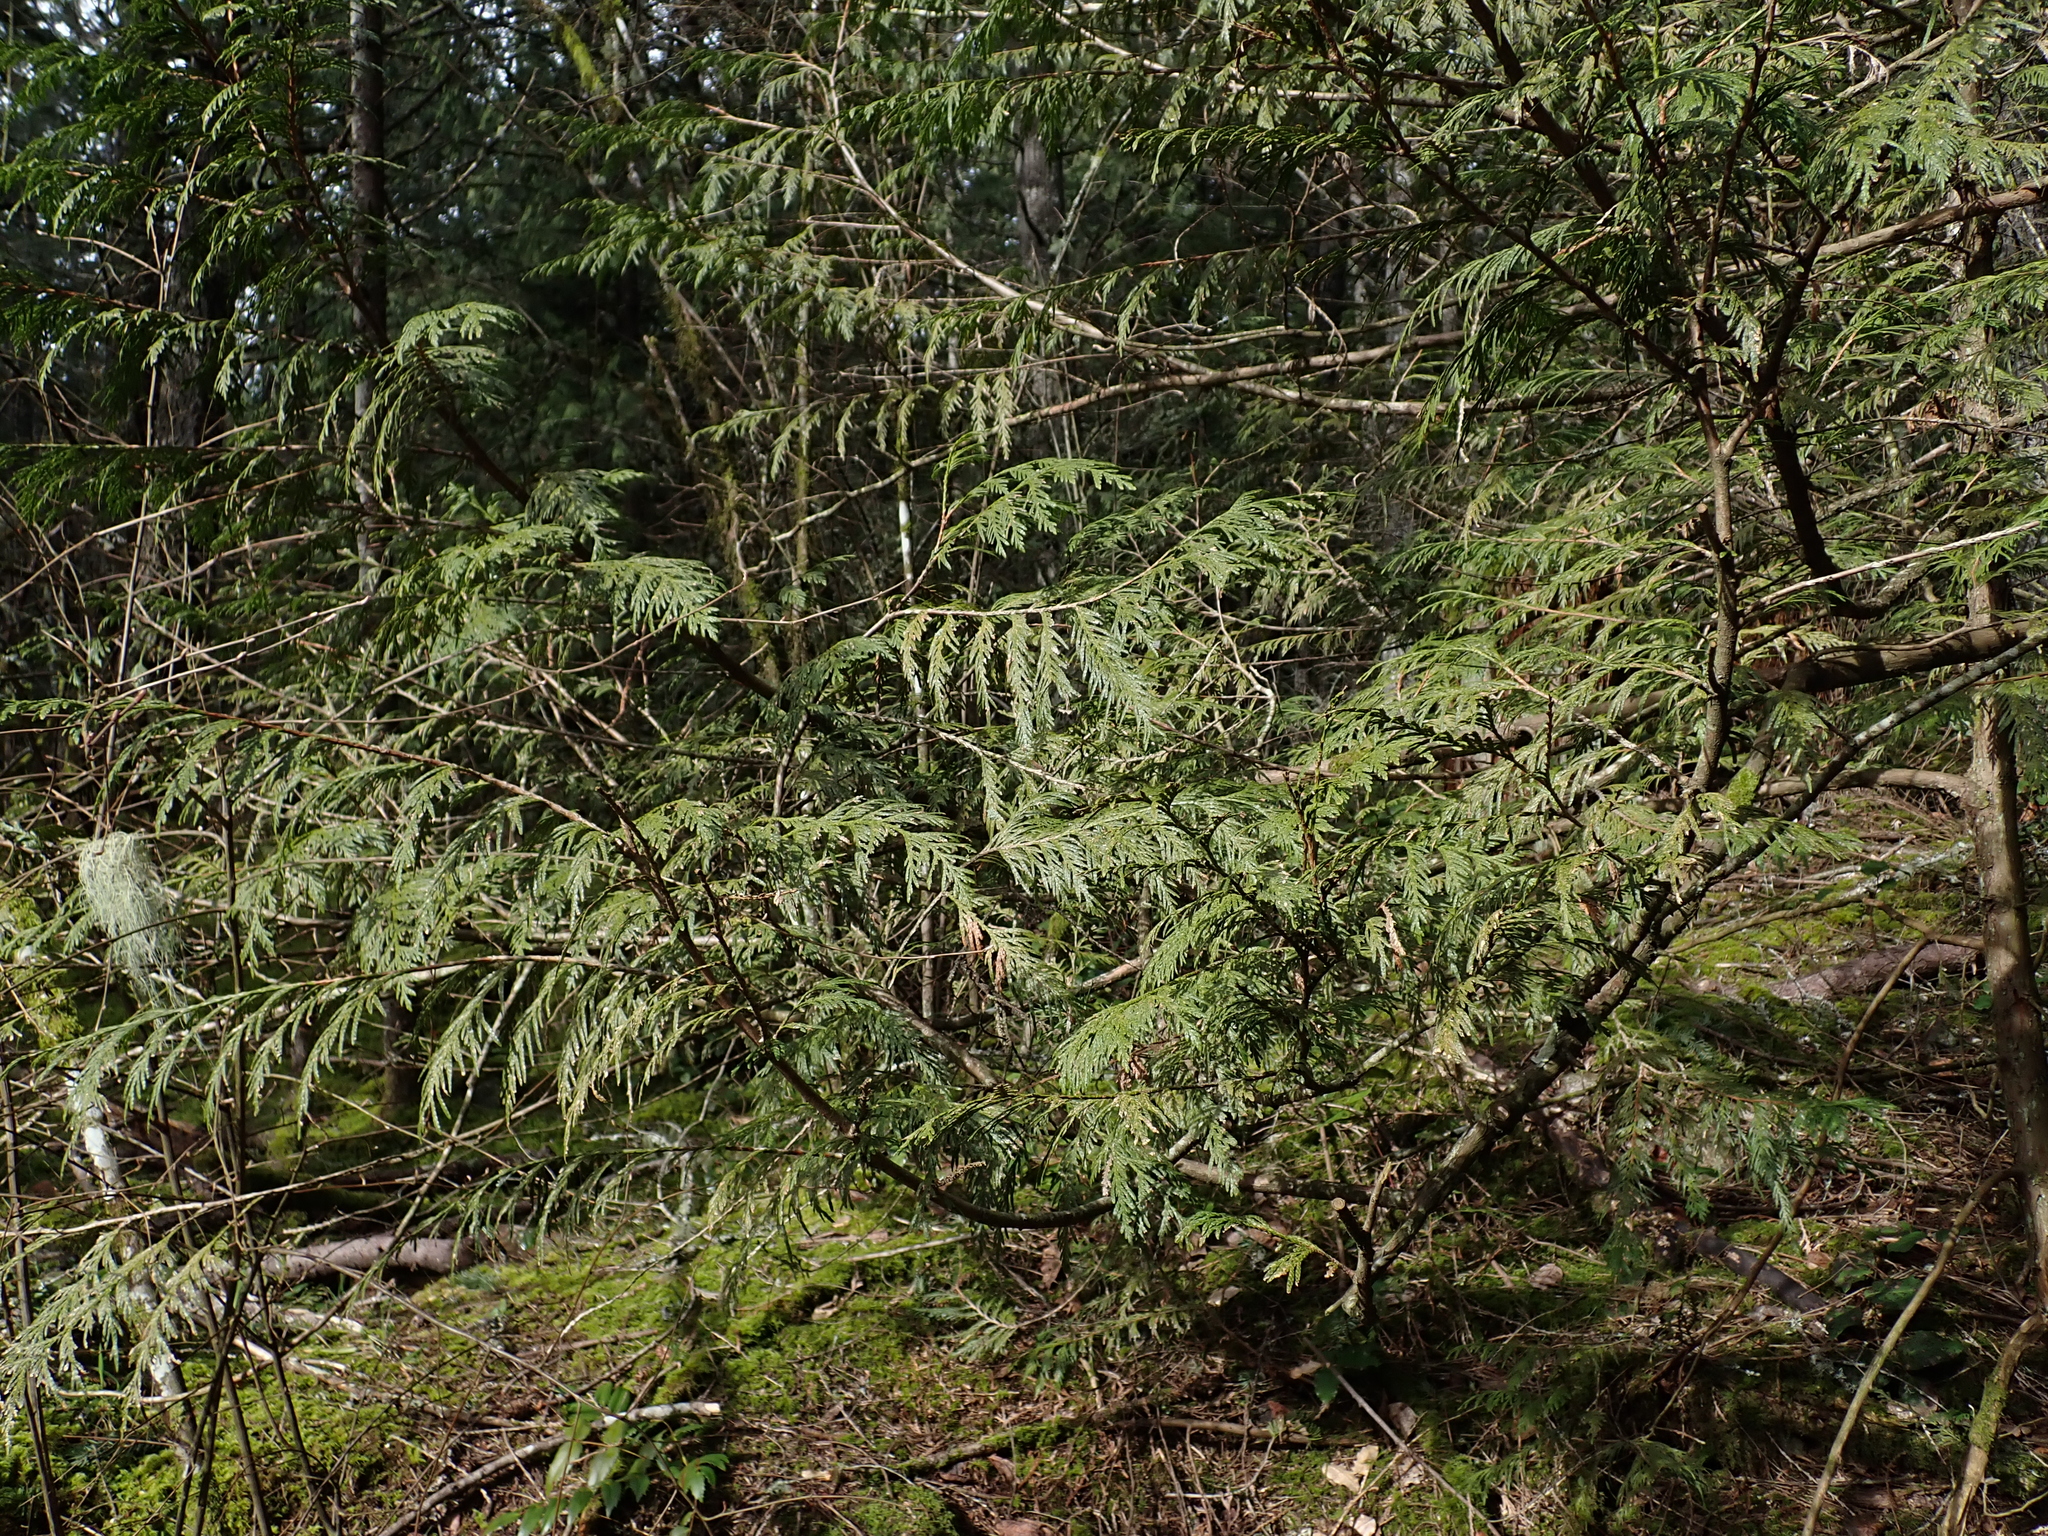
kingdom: Plantae
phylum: Tracheophyta
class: Pinopsida
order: Pinales
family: Cupressaceae
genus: Thuja
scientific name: Thuja plicata
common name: Western red-cedar
